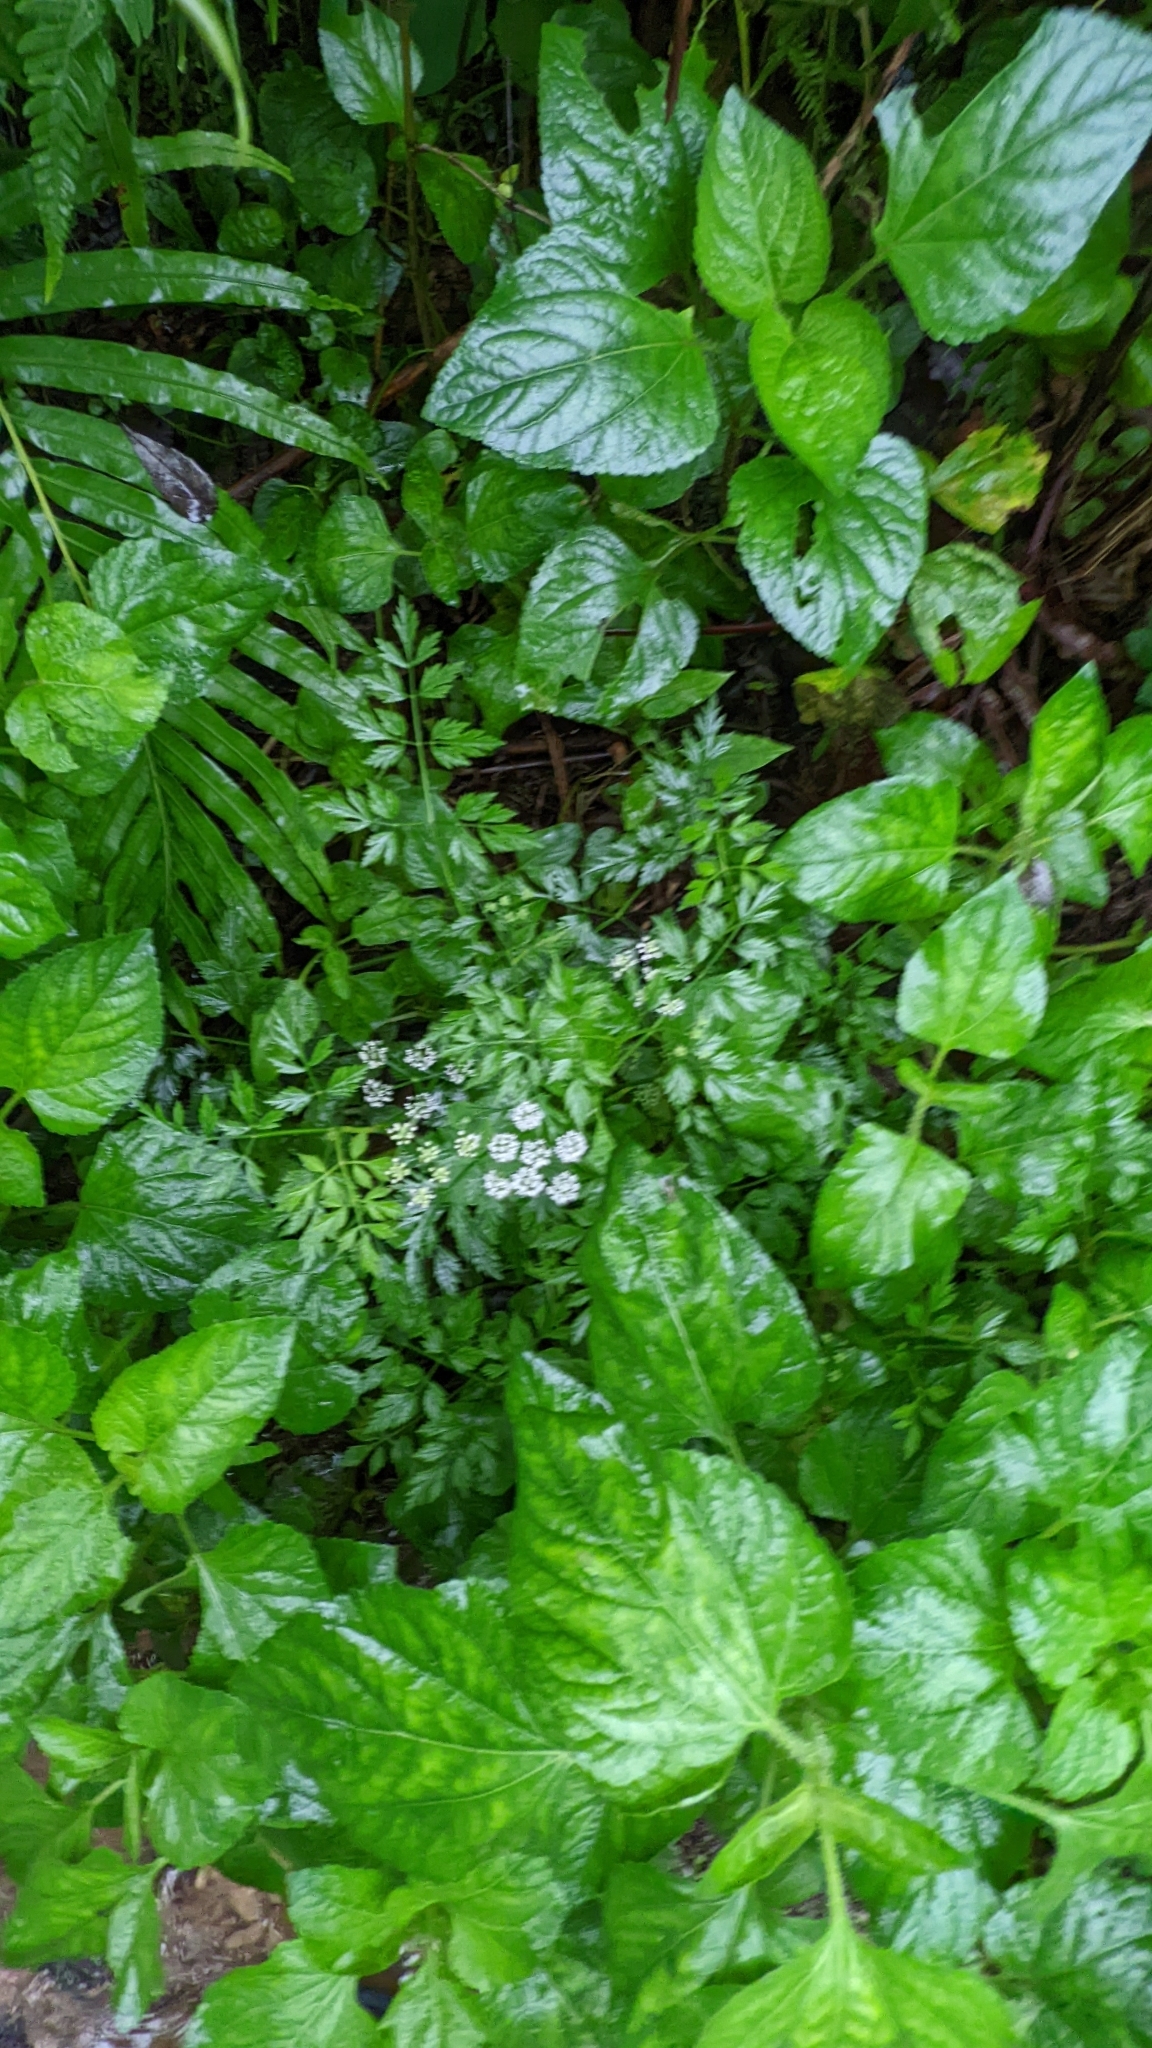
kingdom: Plantae
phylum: Tracheophyta
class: Magnoliopsida
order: Apiales
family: Apiaceae
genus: Oenanthe
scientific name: Oenanthe javanica
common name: Java water-dropwort
